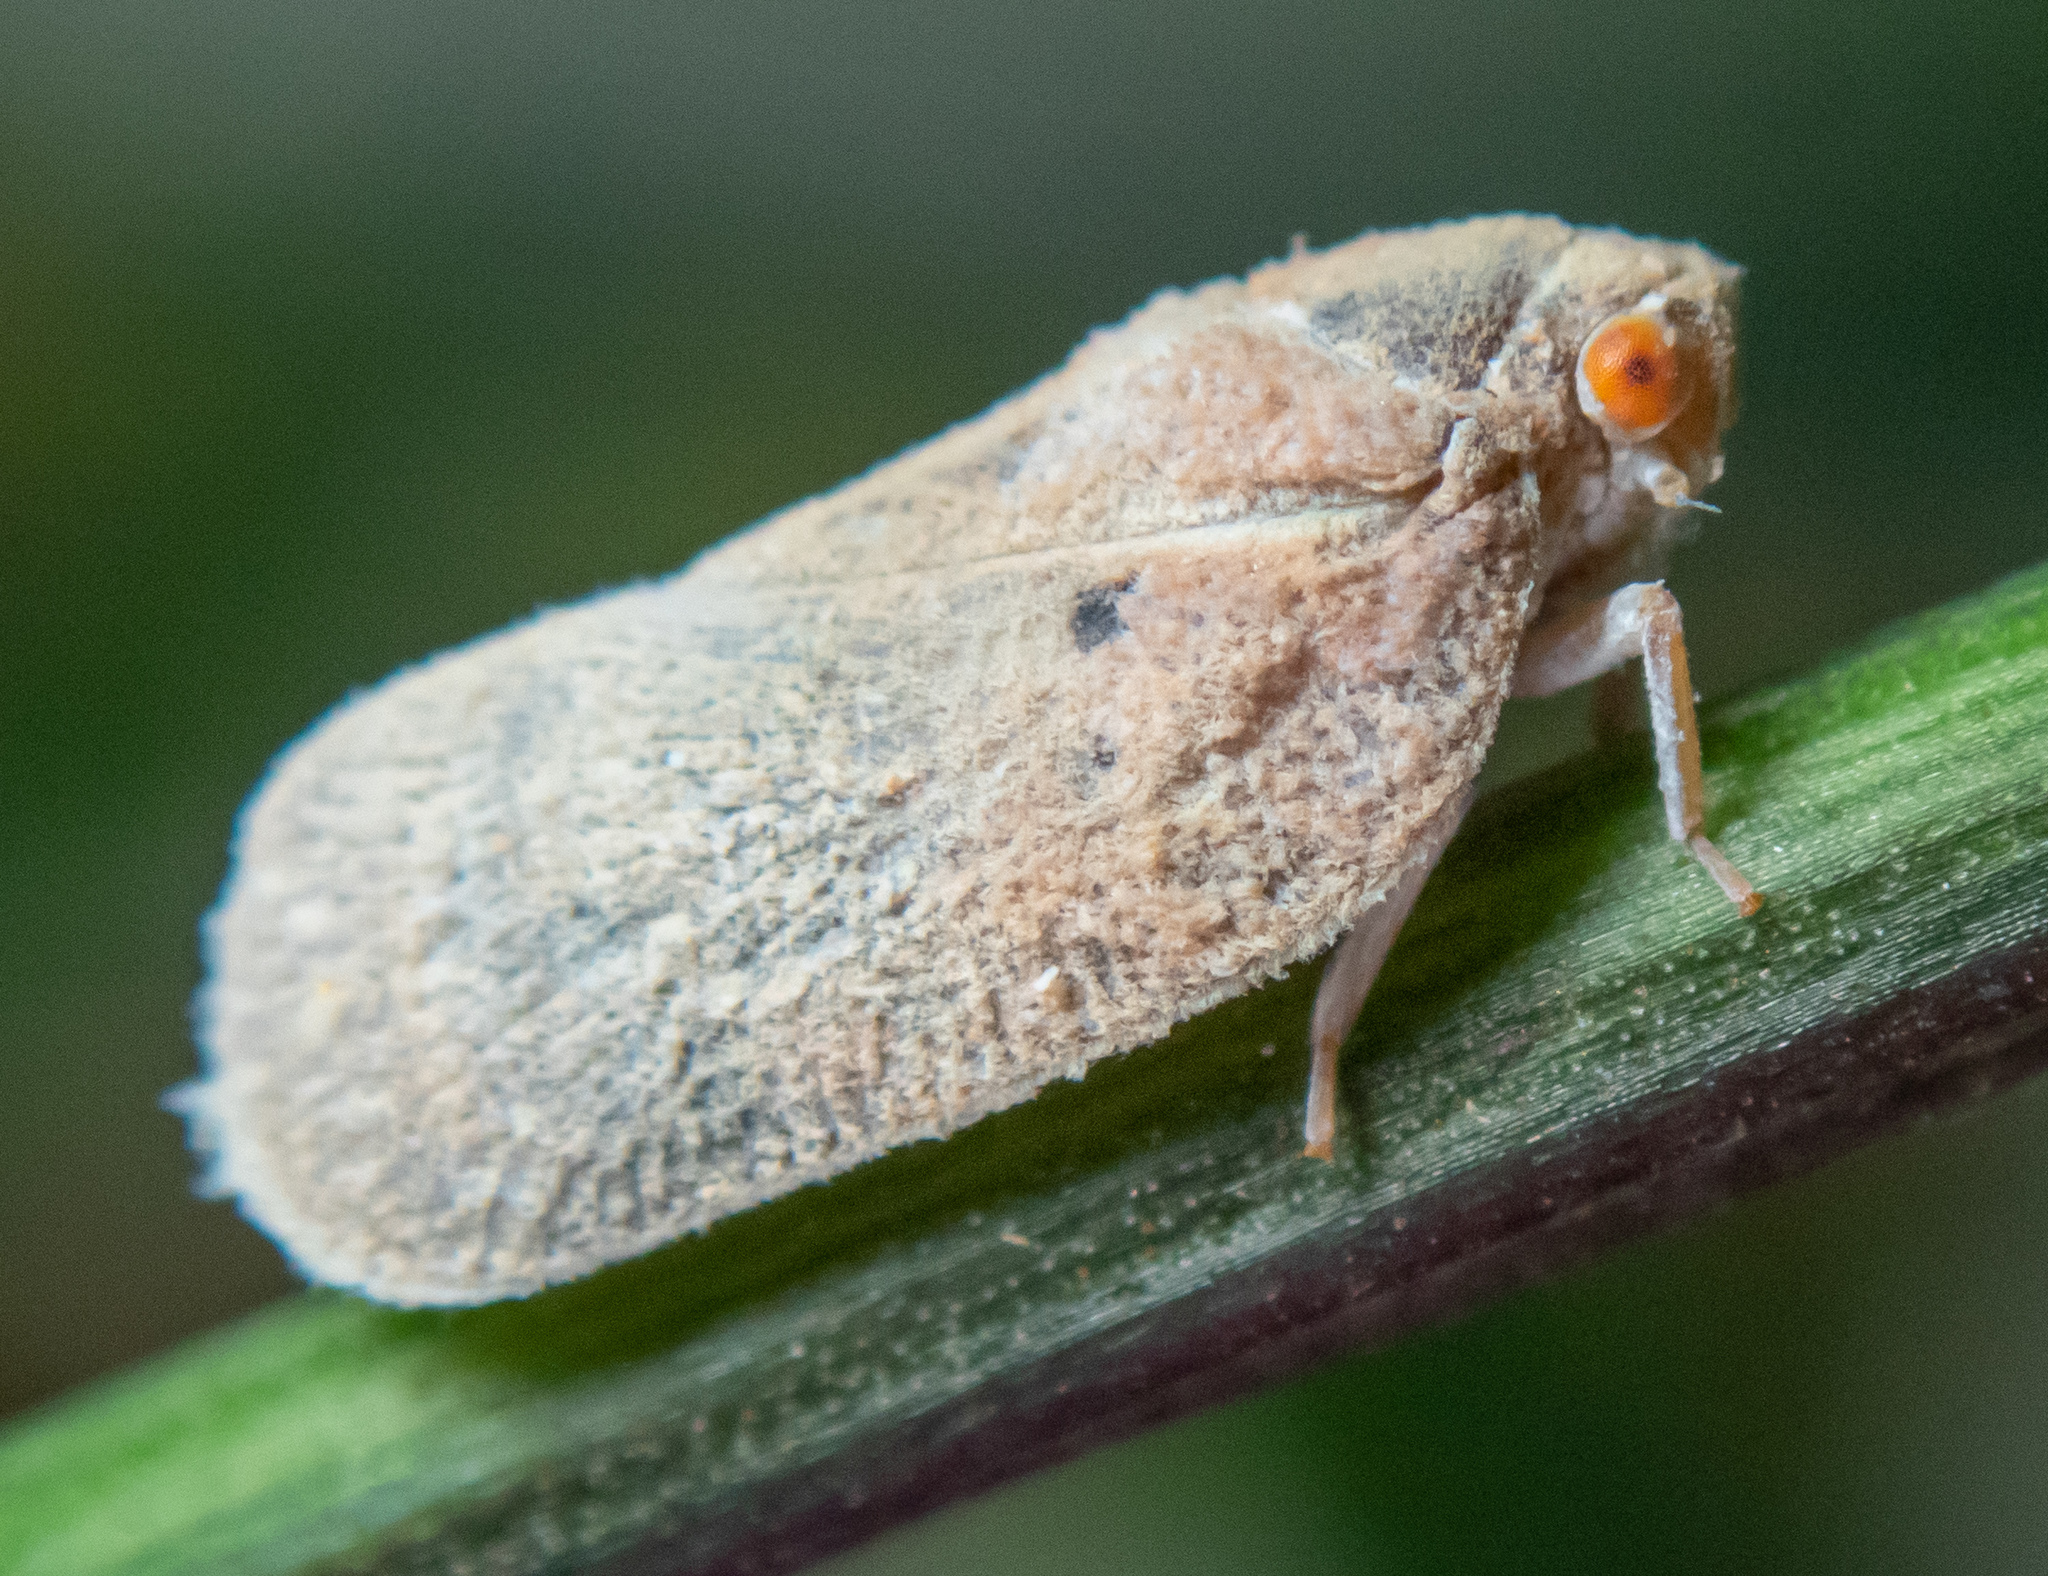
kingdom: Animalia
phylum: Arthropoda
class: Insecta
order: Hemiptera
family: Flatidae
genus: Melormenis
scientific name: Melormenis basalis
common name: Puerto rican planthopper
